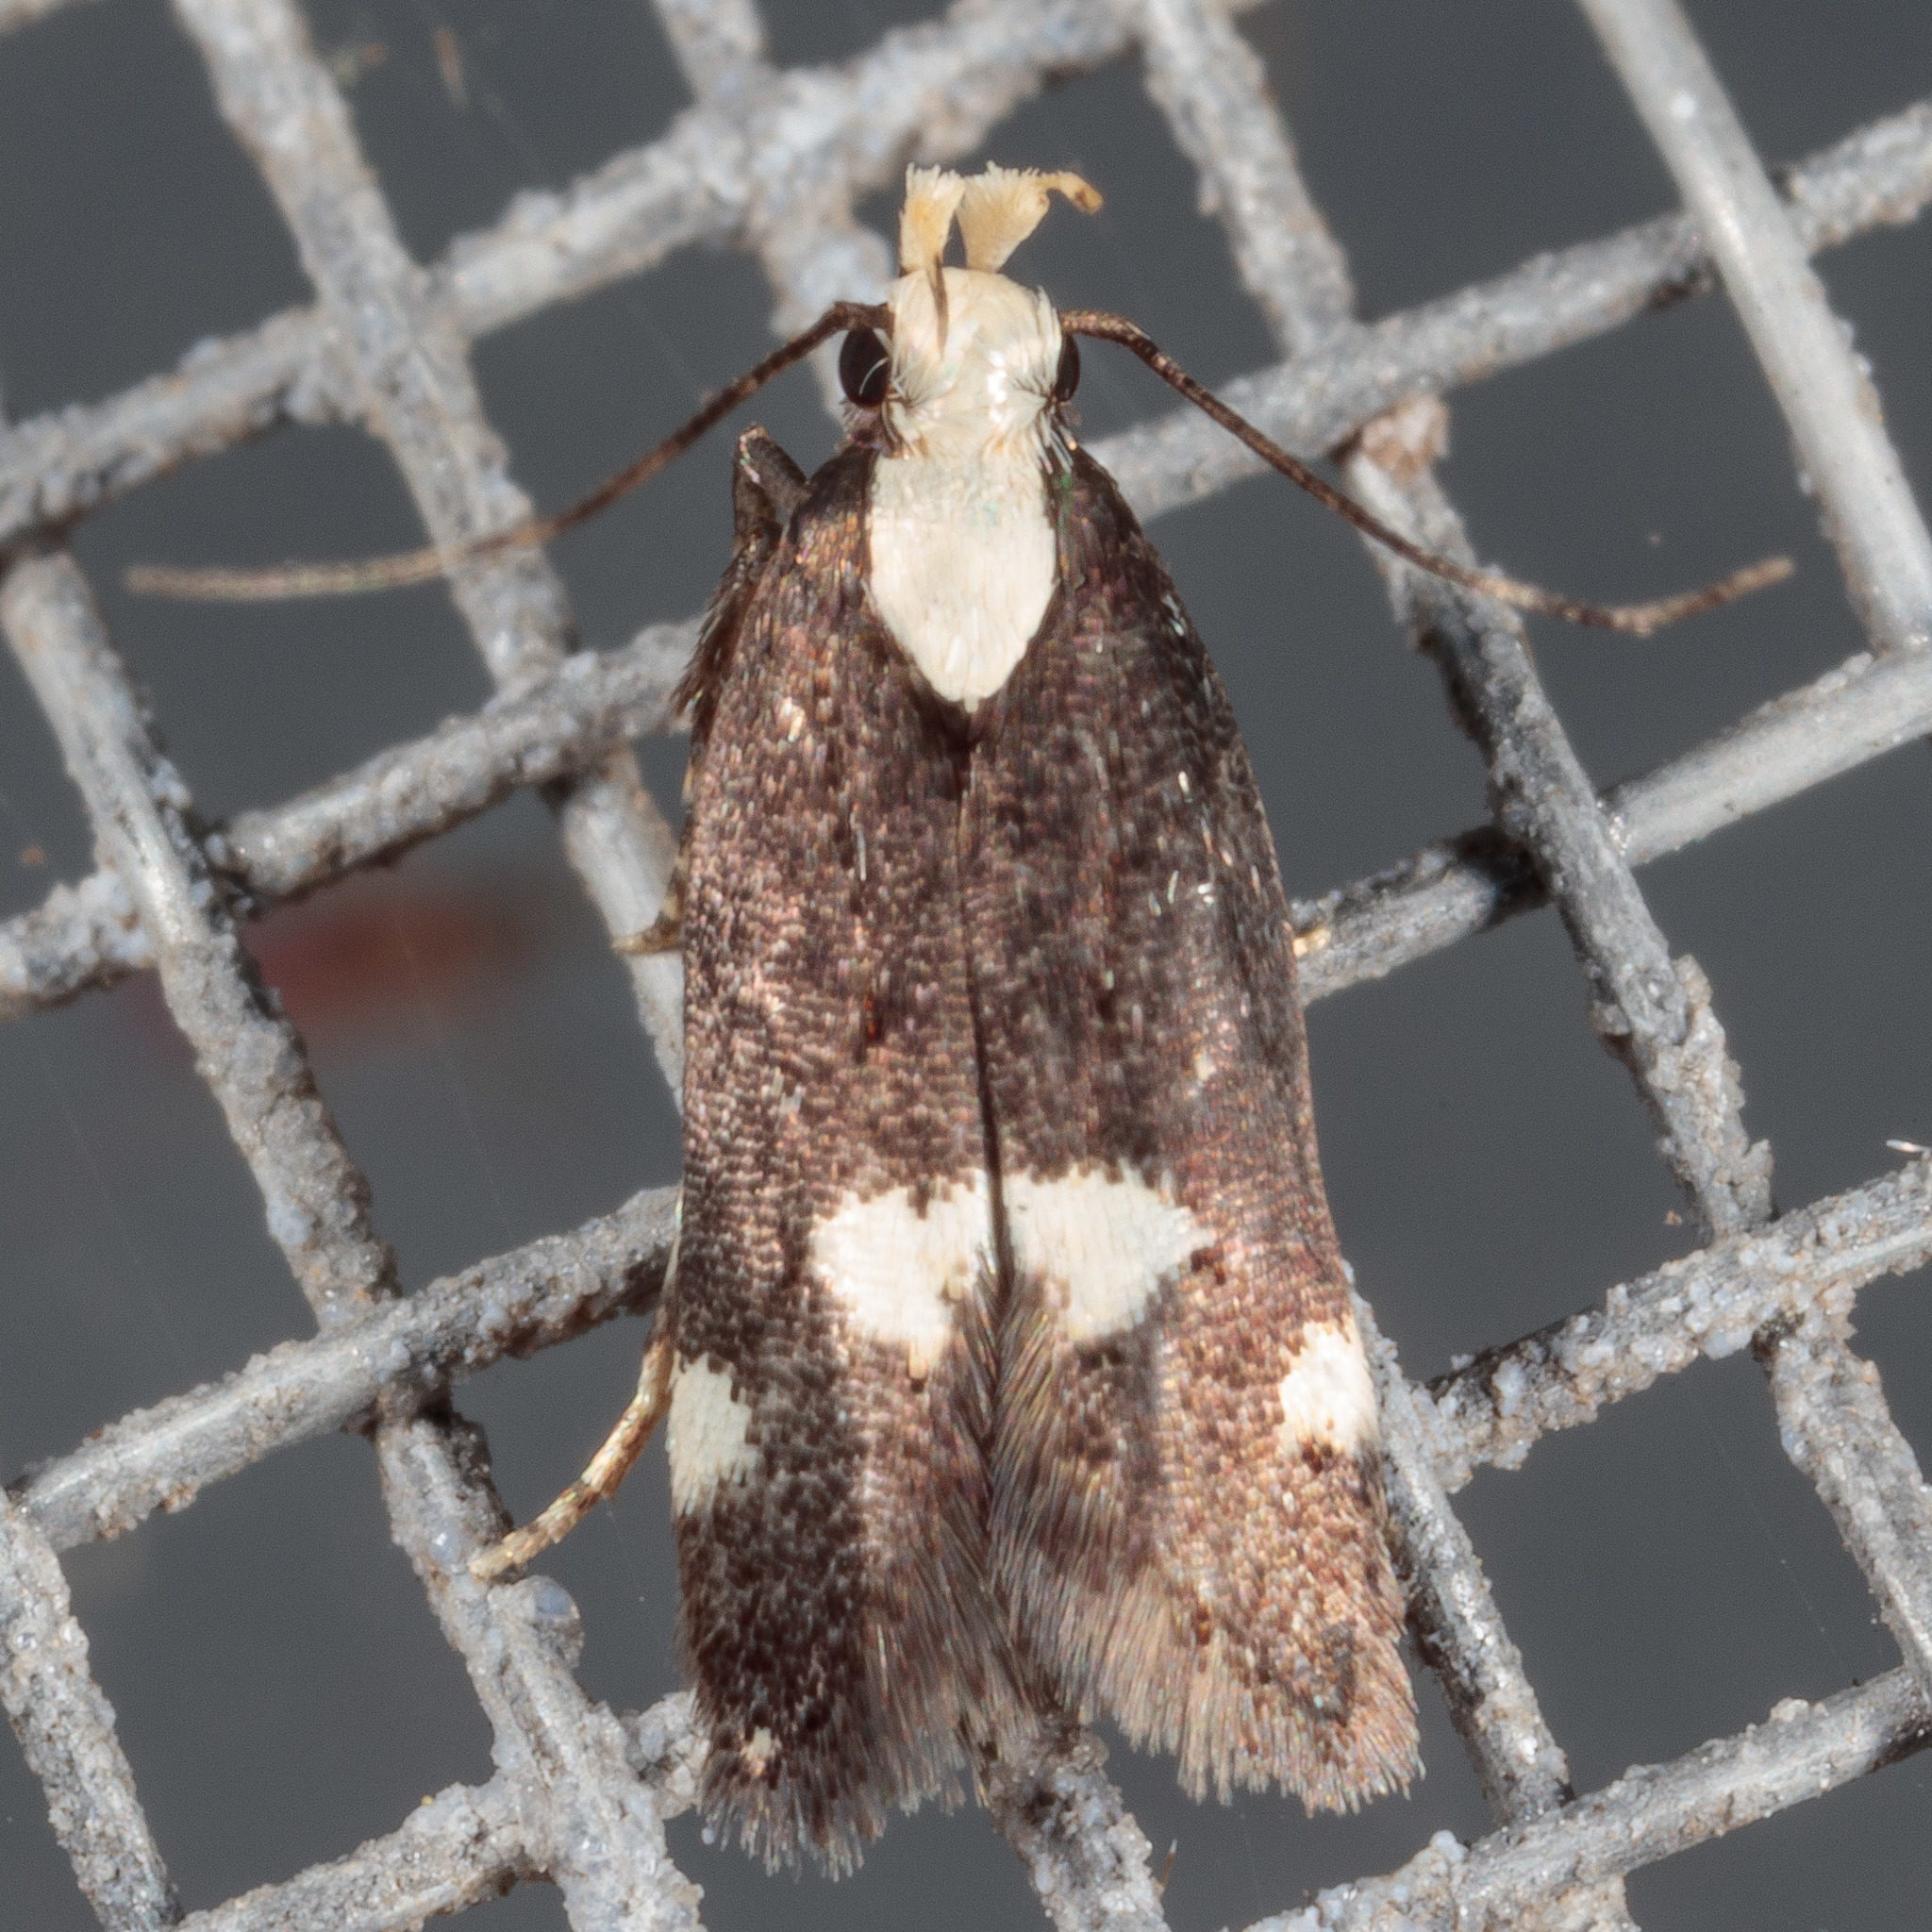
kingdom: Animalia
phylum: Arthropoda
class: Insecta
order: Lepidoptera
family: Gelechiidae
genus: Chionodes
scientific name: Chionodes mariona
